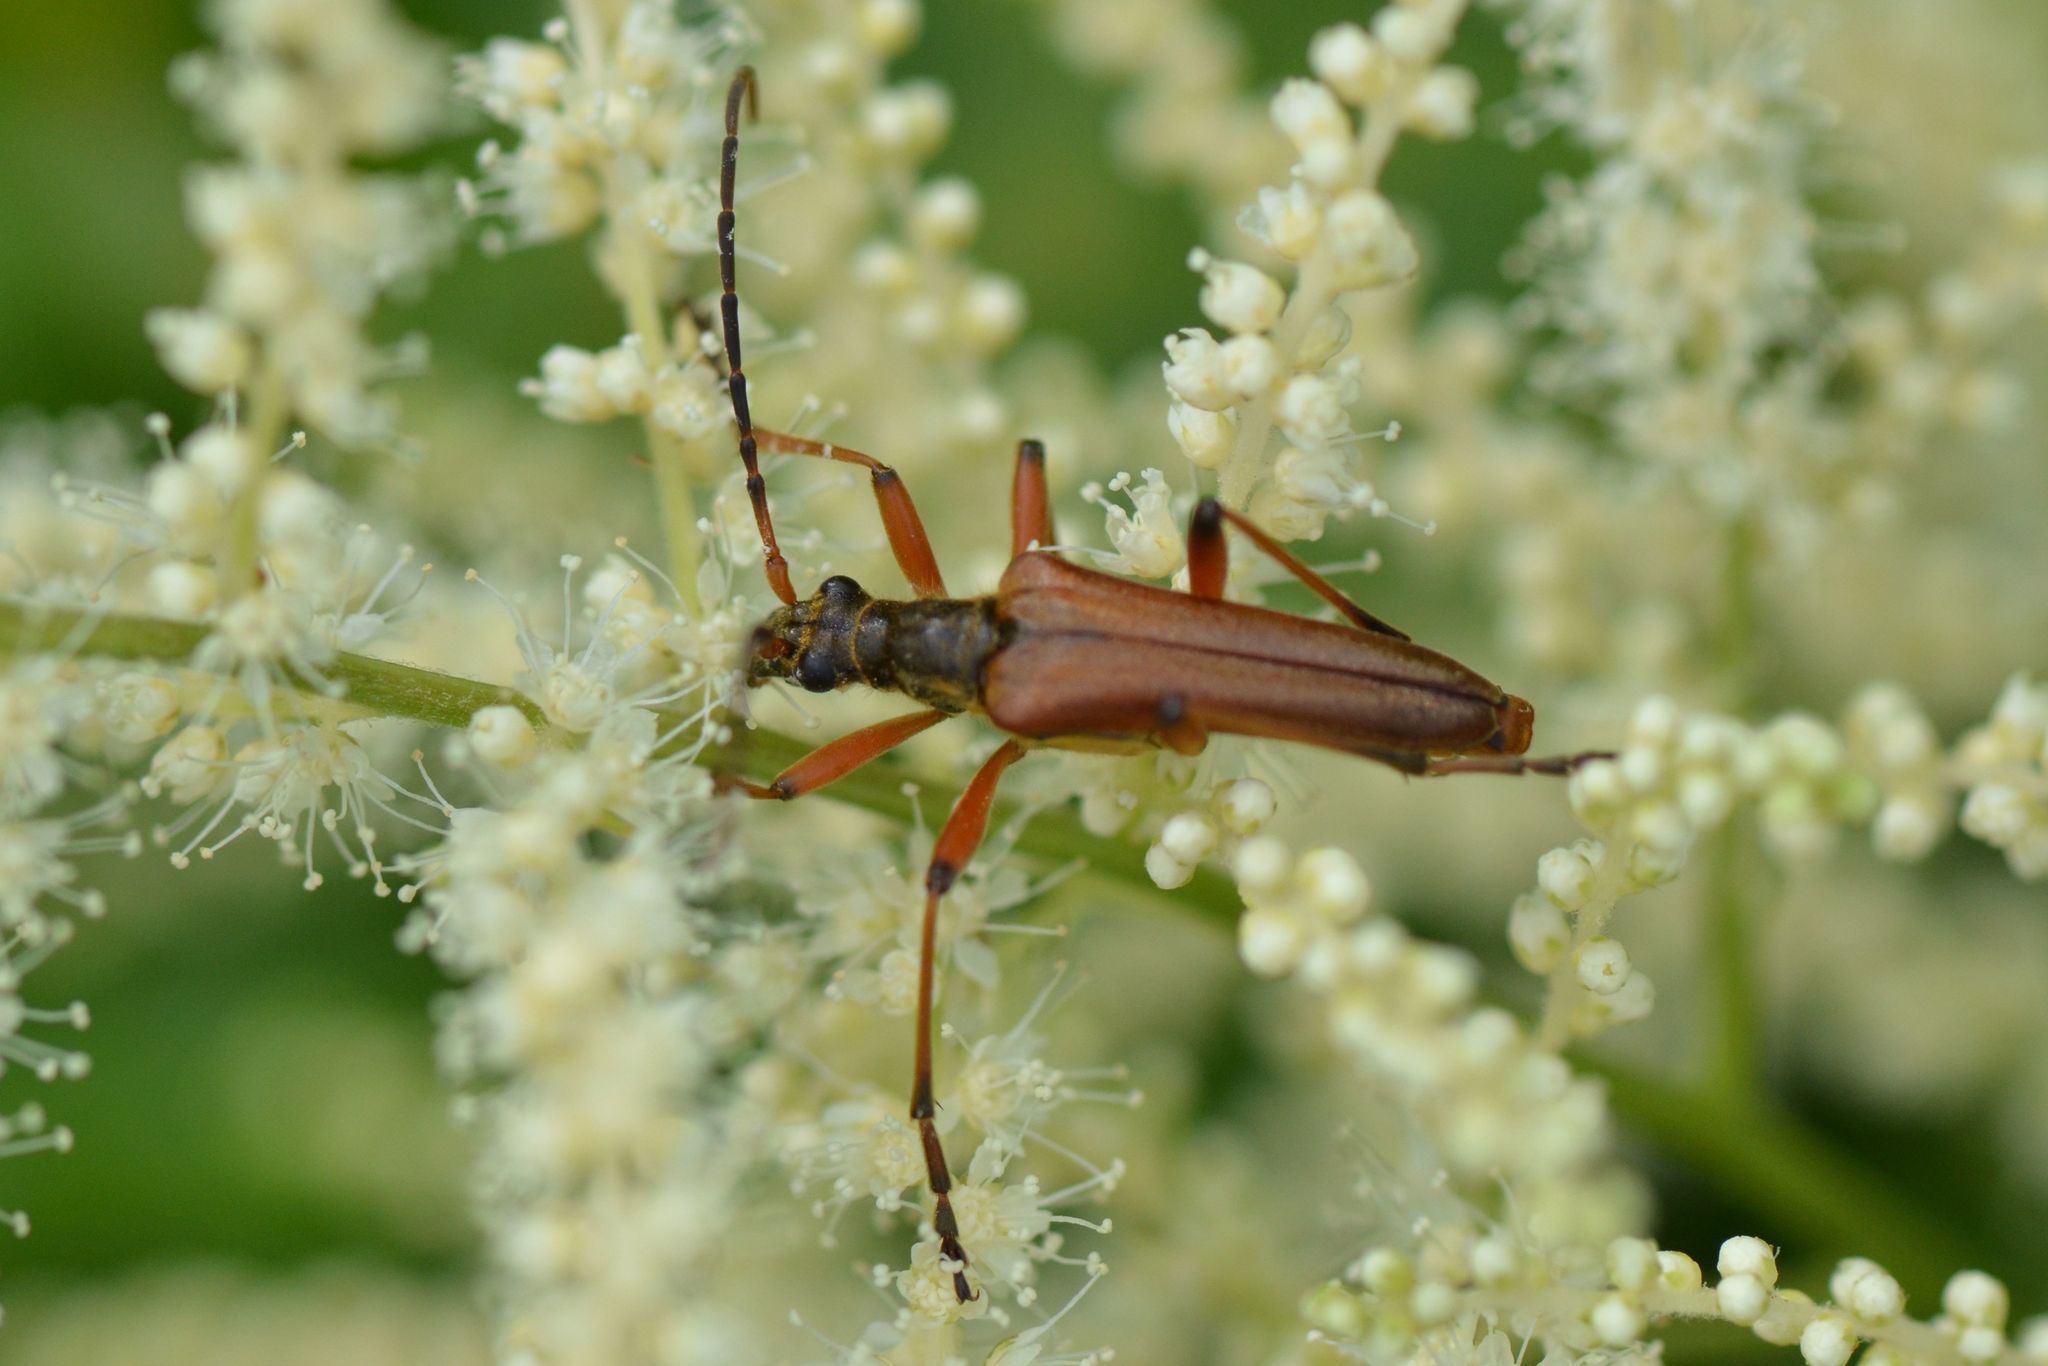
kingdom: Animalia
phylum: Arthropoda
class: Insecta
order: Coleoptera
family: Cerambycidae
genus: Stenocorus
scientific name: Stenocorus meridianus
